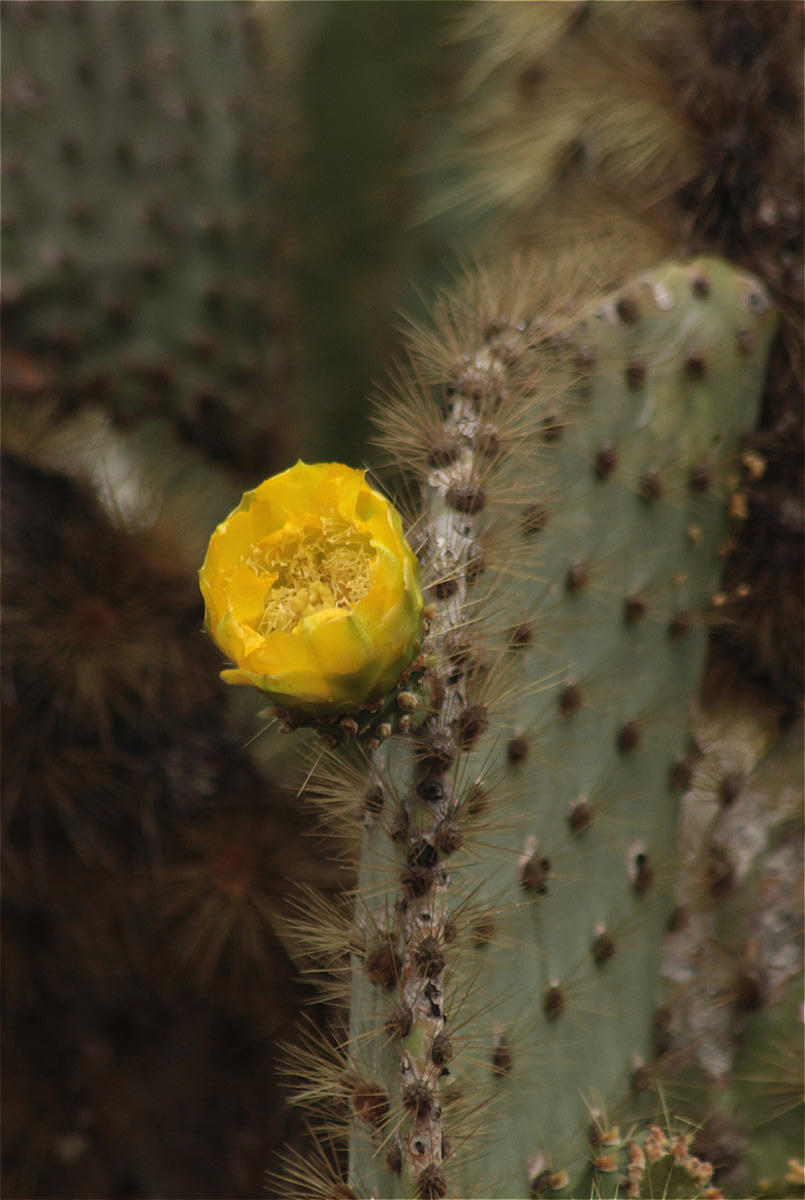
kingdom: Plantae
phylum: Tracheophyta
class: Magnoliopsida
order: Caryophyllales
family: Cactaceae
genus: Opuntia
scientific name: Opuntia galapageia
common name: Galápagos prickly pear
